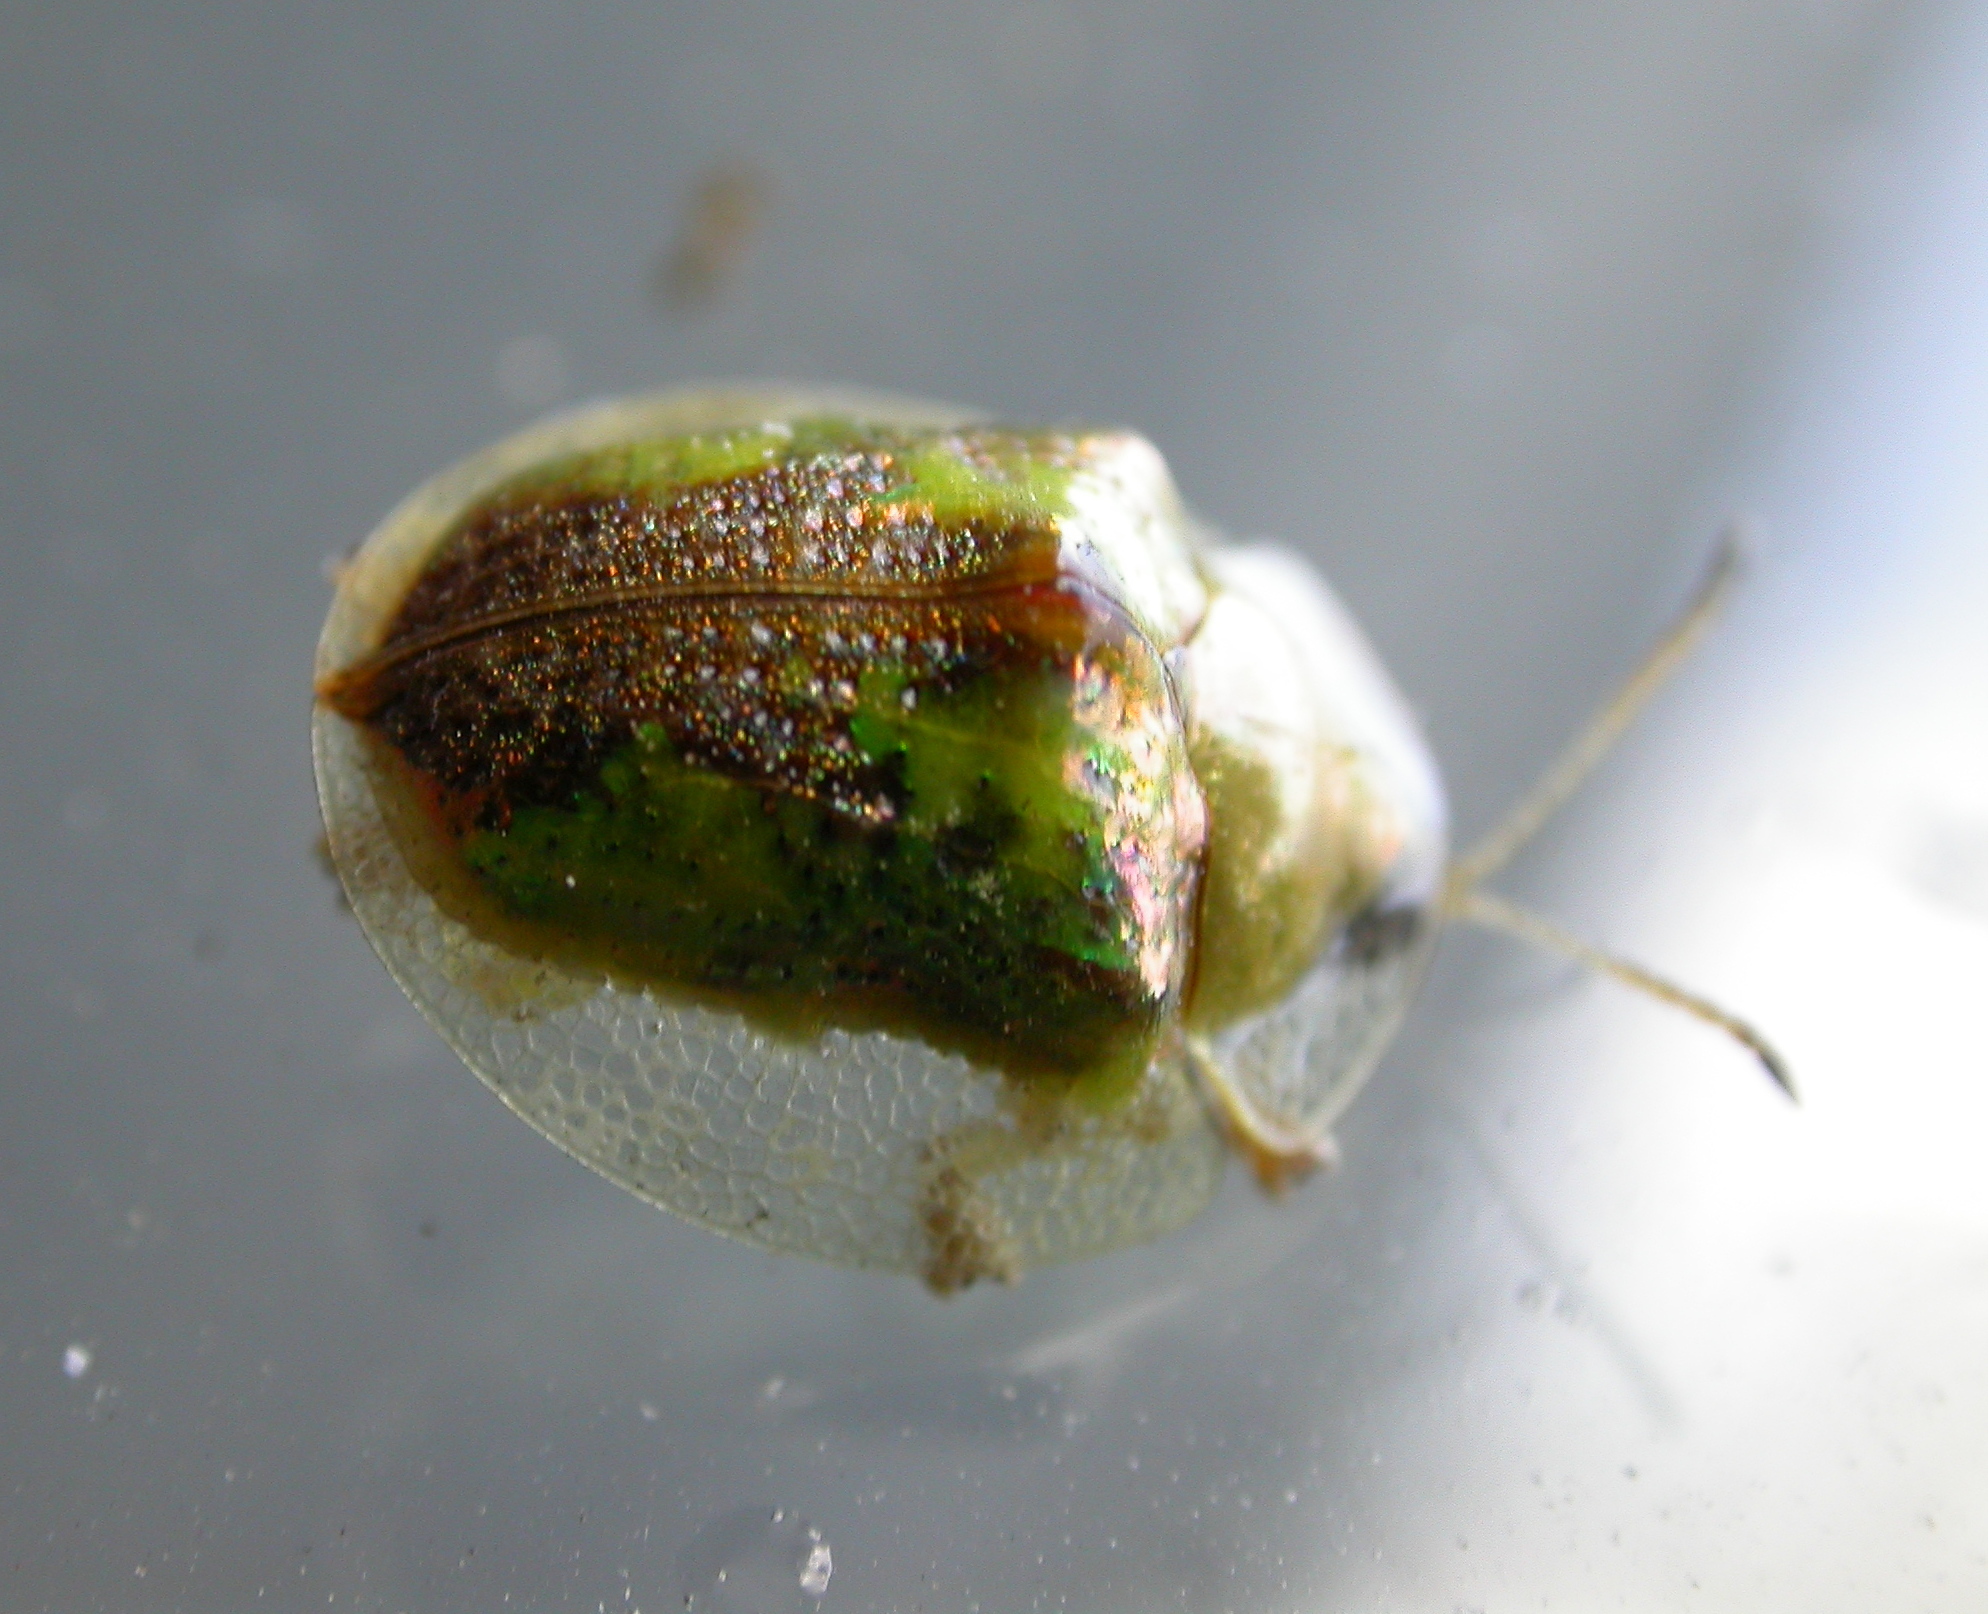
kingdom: Animalia
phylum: Arthropoda
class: Insecta
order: Coleoptera
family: Chrysomelidae
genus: Coptocycla
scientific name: Coptocycla texana
